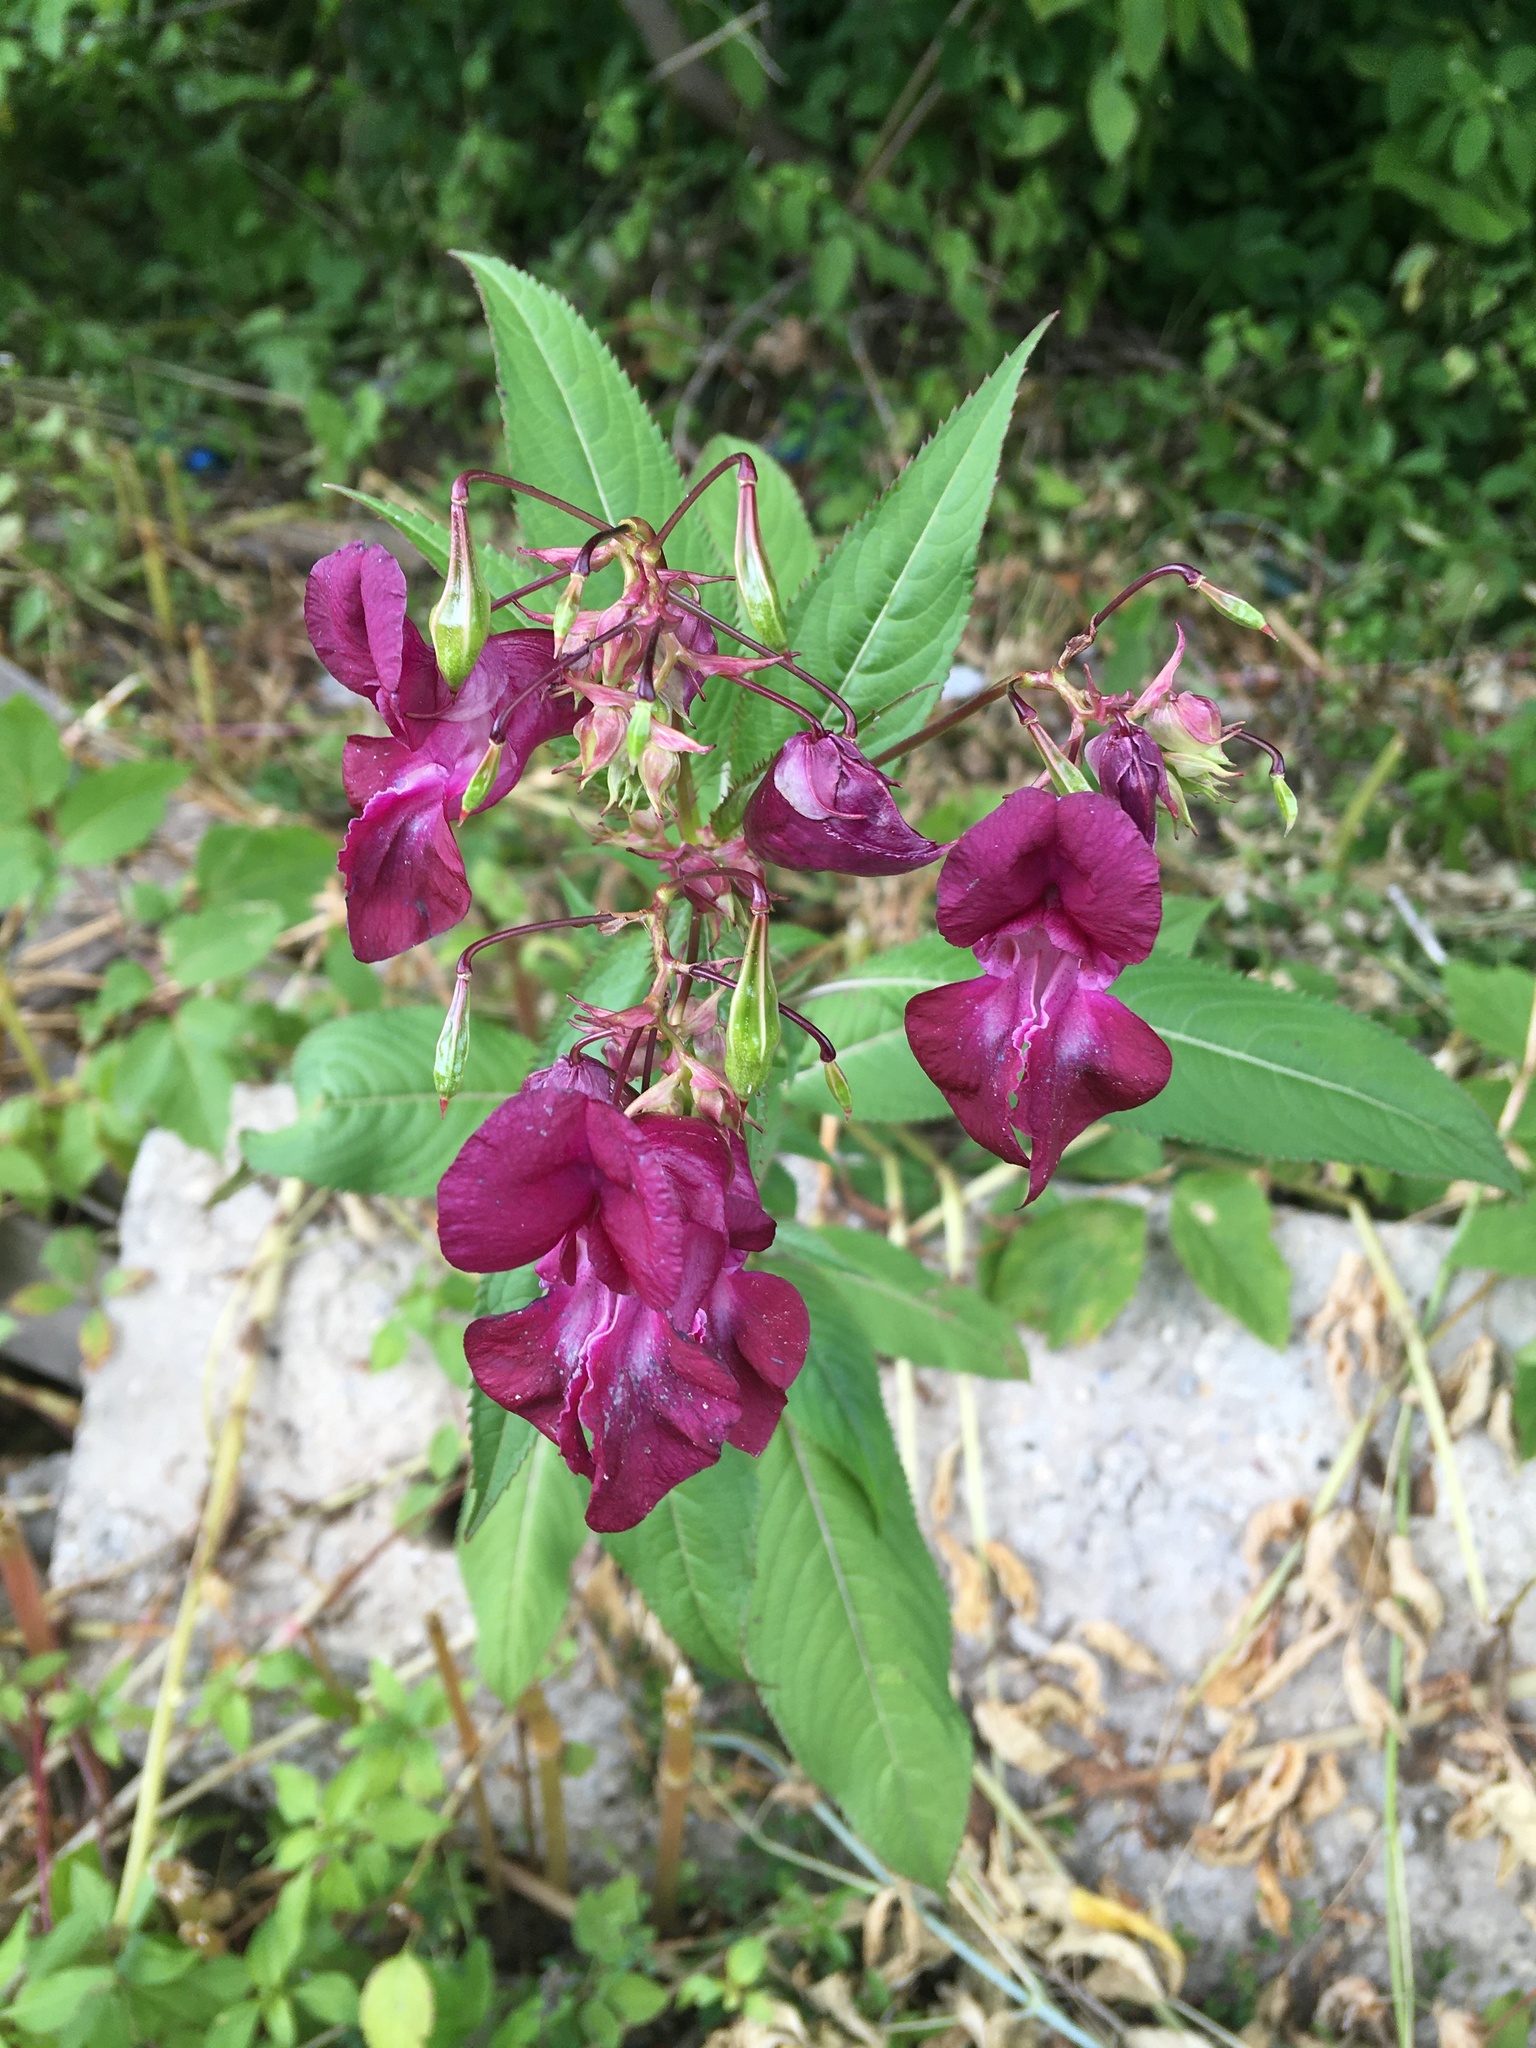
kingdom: Plantae
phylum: Tracheophyta
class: Magnoliopsida
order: Ericales
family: Balsaminaceae
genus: Impatiens
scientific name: Impatiens glandulifera
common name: Himalayan balsam
